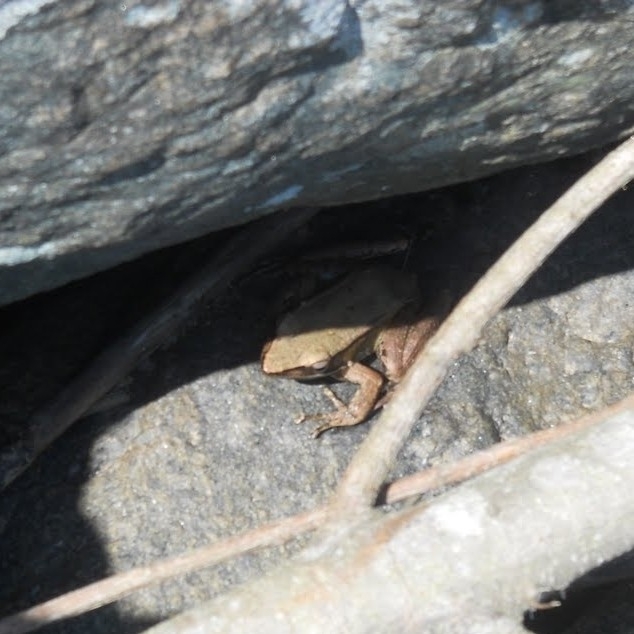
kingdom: Animalia
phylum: Chordata
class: Amphibia
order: Anura
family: Ranidae
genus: Indosylvirana
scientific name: Indosylvirana sreeni
